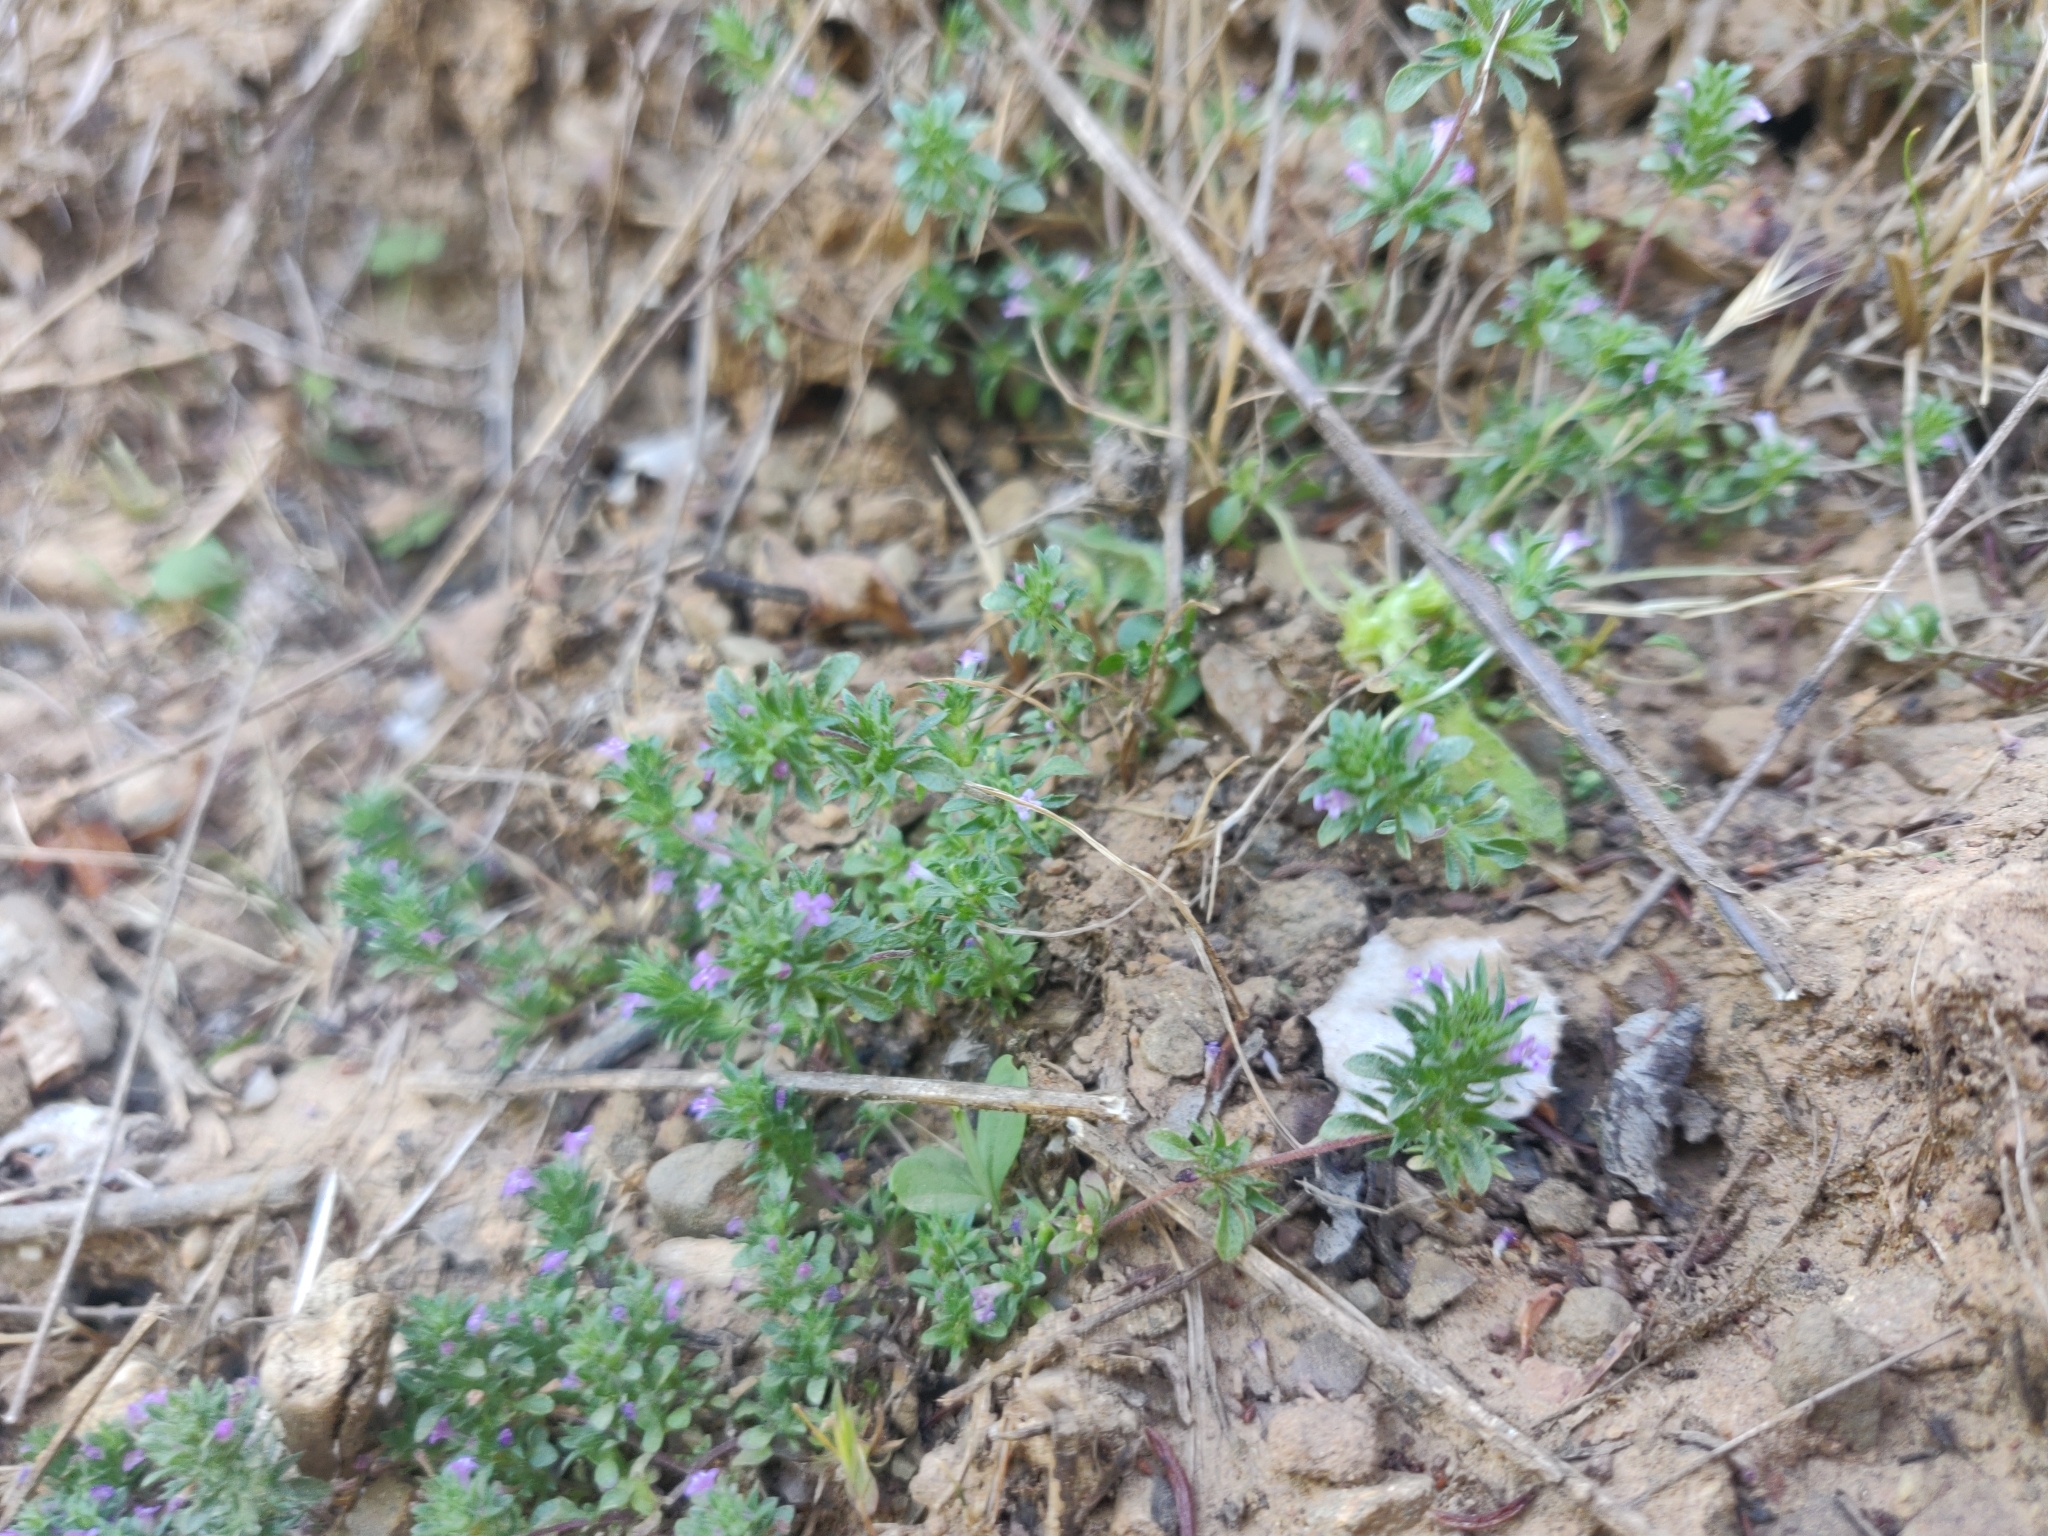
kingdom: Plantae
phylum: Tracheophyta
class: Magnoliopsida
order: Lamiales
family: Lamiaceae
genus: Pogogyne
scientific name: Pogogyne serpylloides
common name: Thymeleaf mesamint
